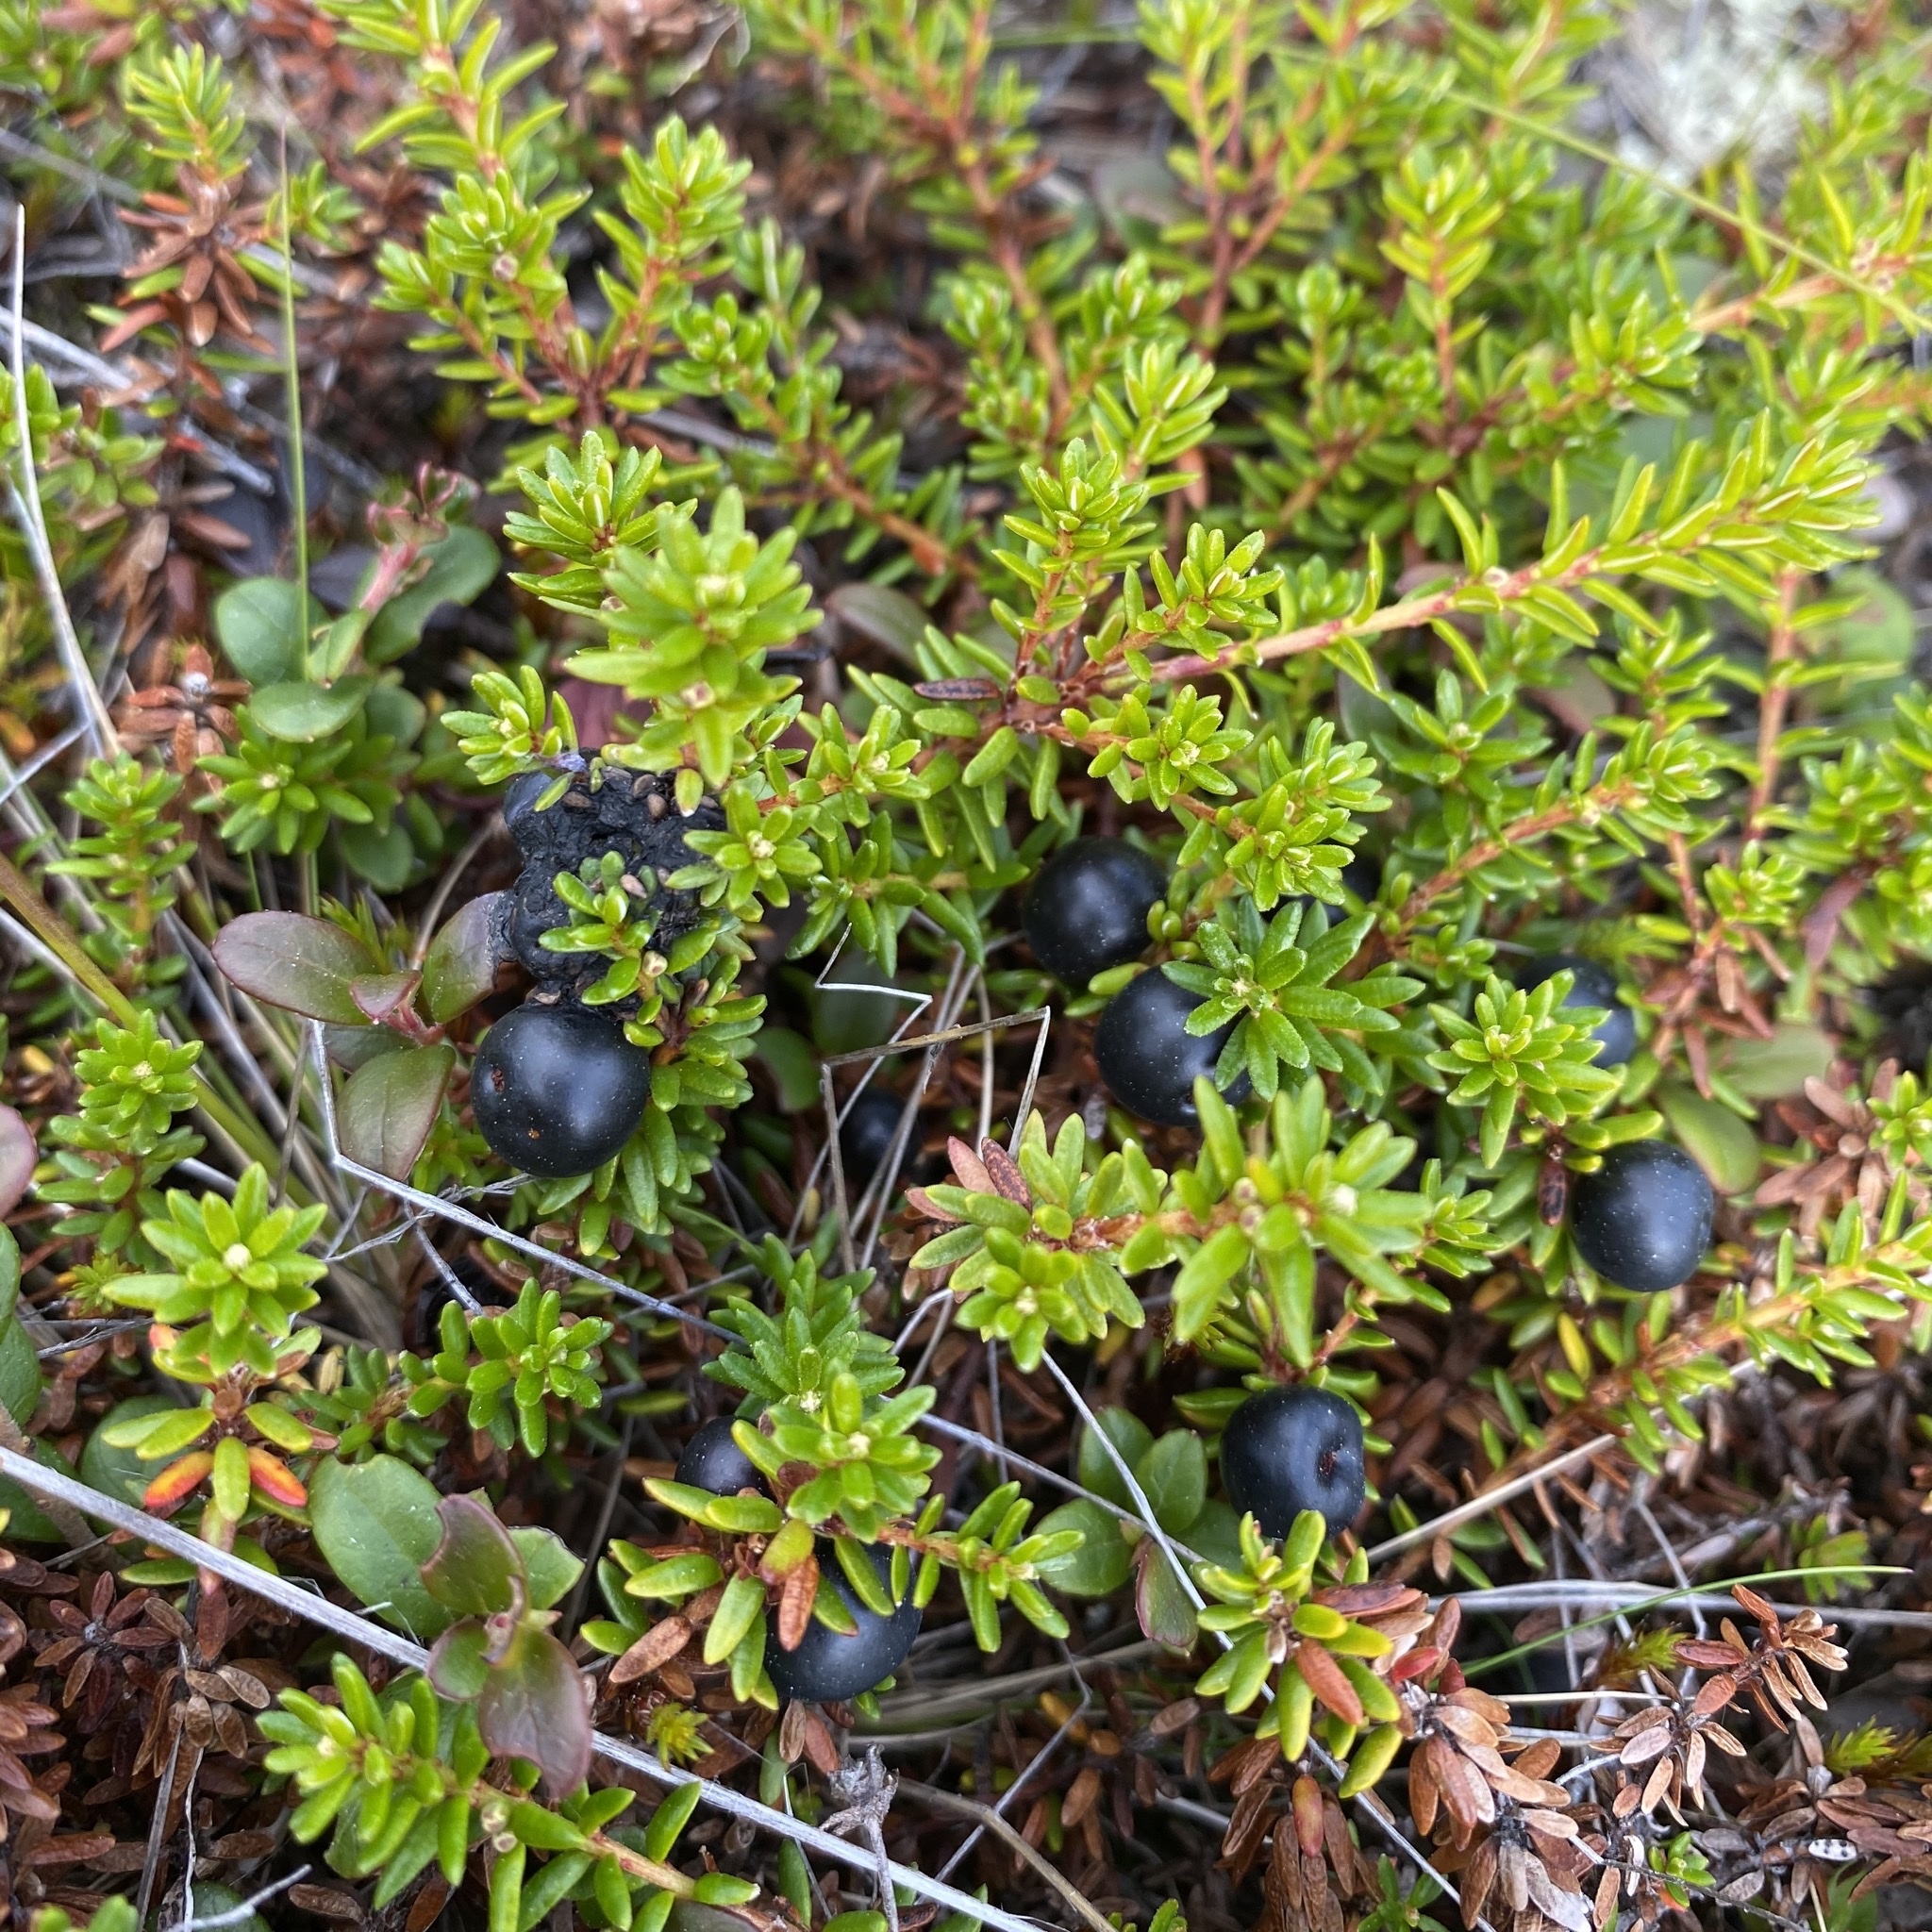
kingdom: Plantae
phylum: Tracheophyta
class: Magnoliopsida
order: Ericales
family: Ericaceae
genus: Empetrum
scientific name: Empetrum nigrum
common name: Black crowberry
